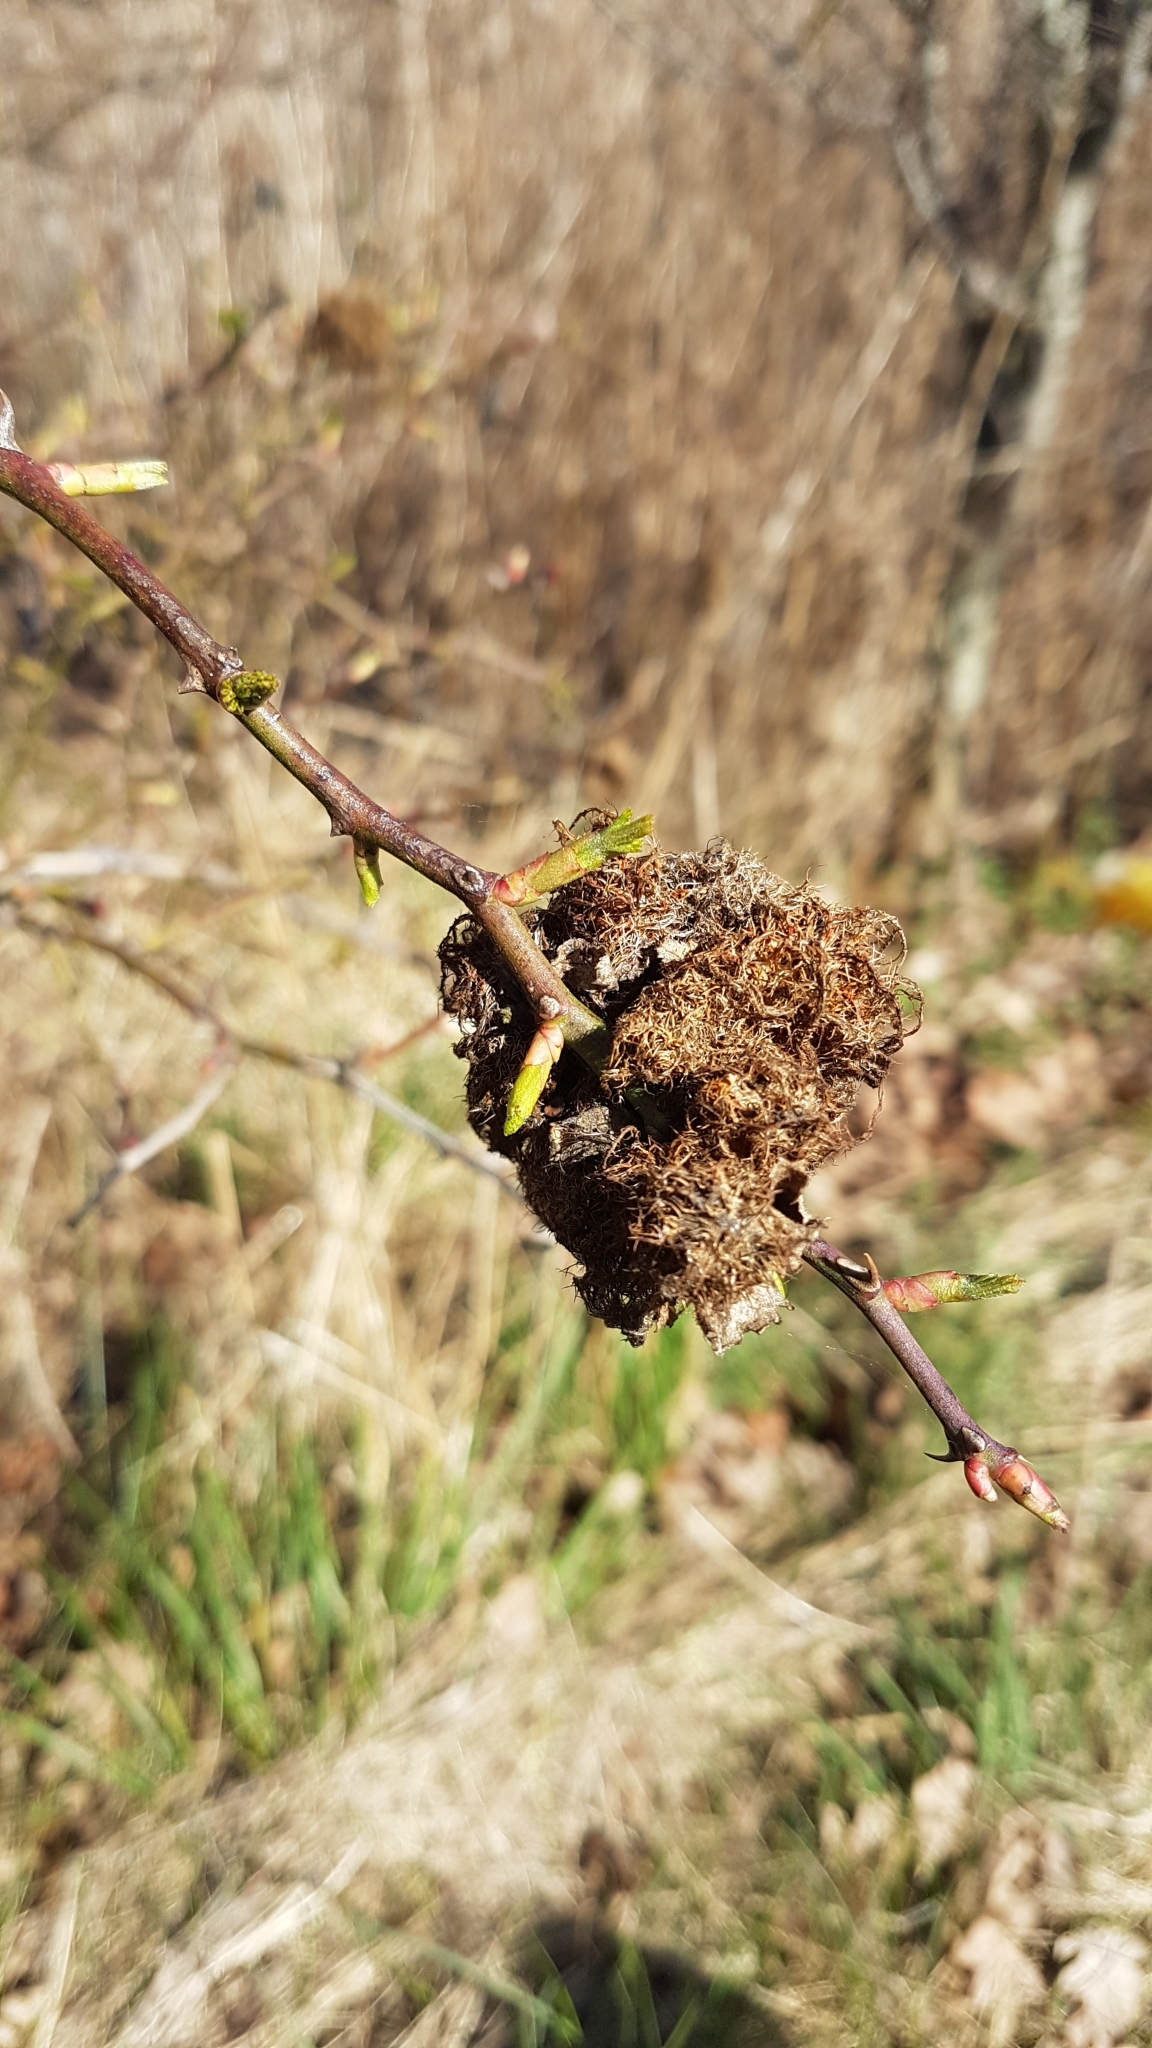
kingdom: Animalia
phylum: Arthropoda
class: Insecta
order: Hymenoptera
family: Cynipidae
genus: Diplolepis
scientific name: Diplolepis rosae
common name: Bedeguar gall
